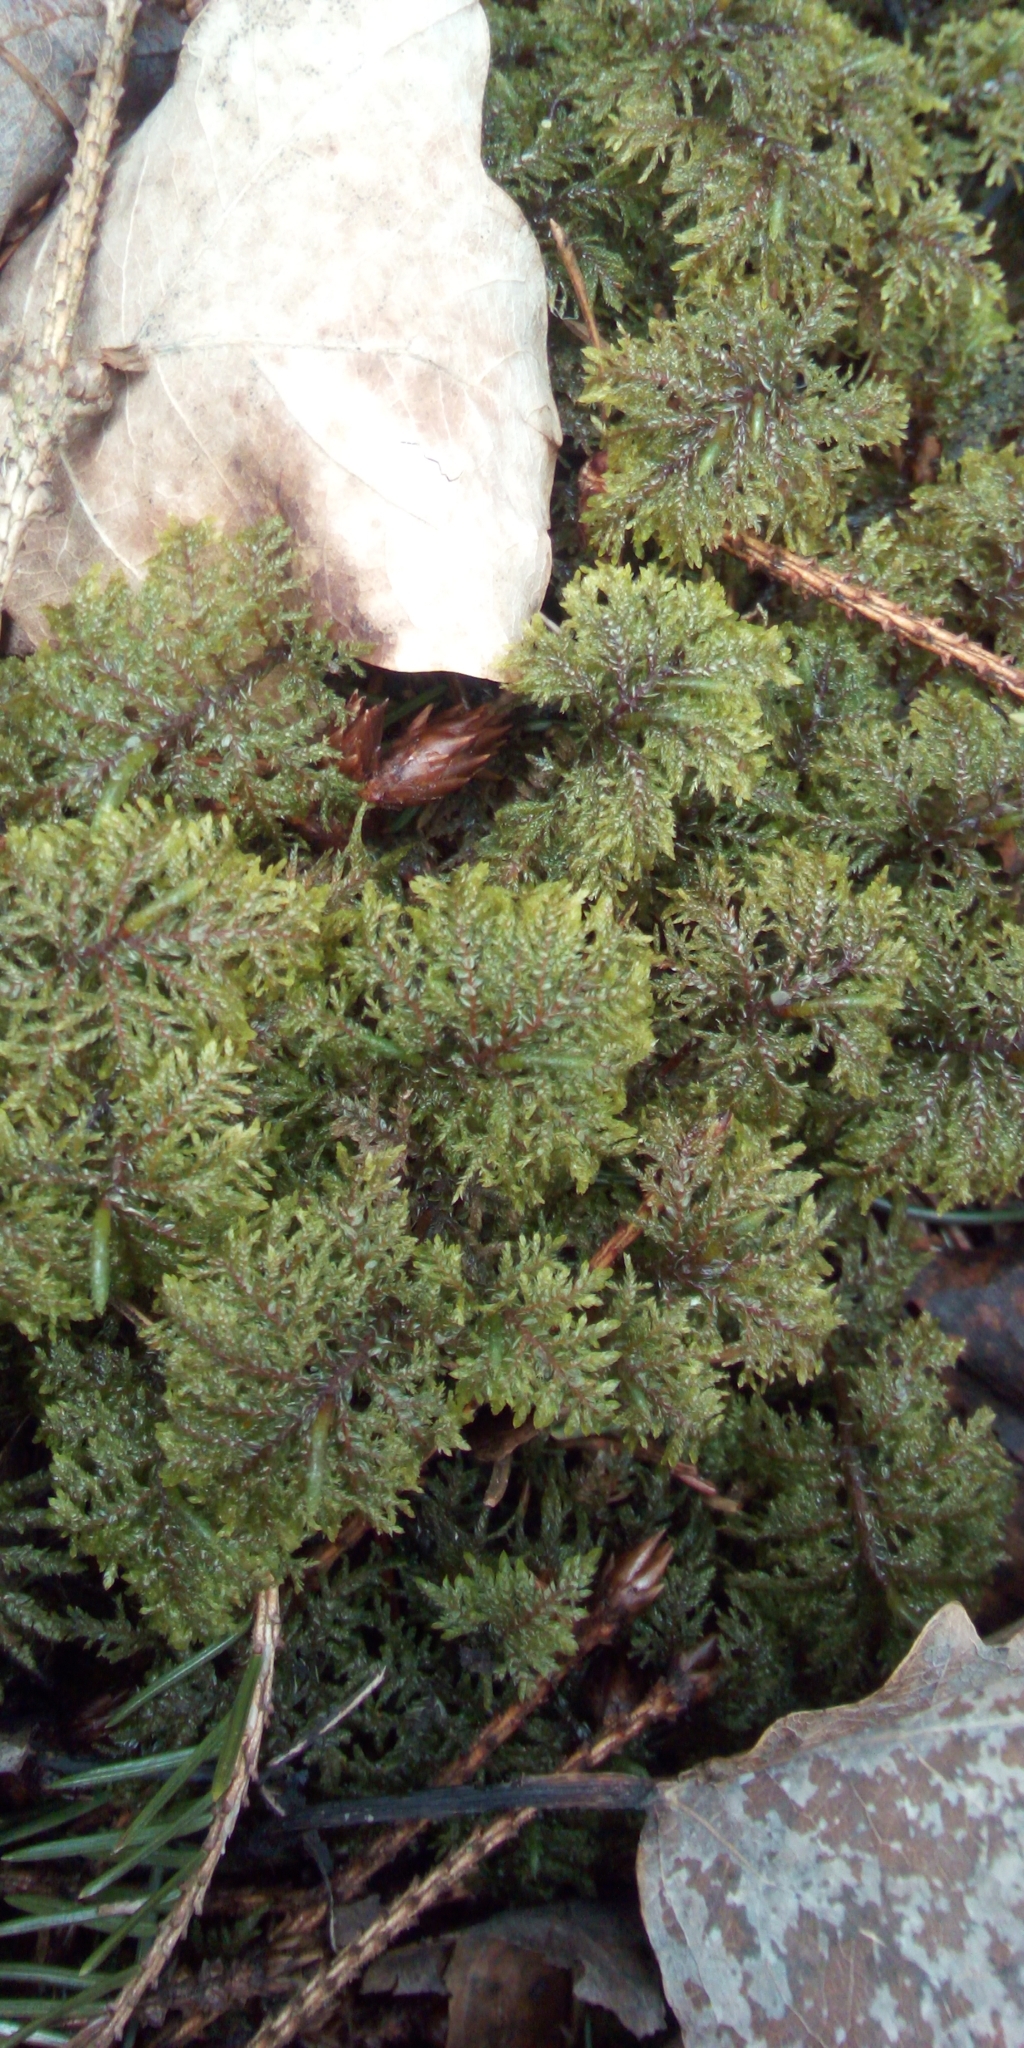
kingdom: Plantae
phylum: Bryophyta
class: Bryopsida
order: Hypnales
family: Hylocomiaceae
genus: Hylocomium
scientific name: Hylocomium splendens
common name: Stairstep moss
